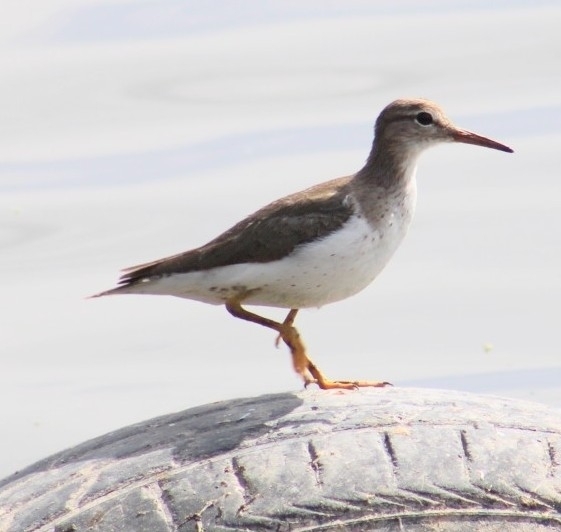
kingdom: Animalia
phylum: Chordata
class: Aves
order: Charadriiformes
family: Scolopacidae
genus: Actitis
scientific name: Actitis macularius
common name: Spotted sandpiper
